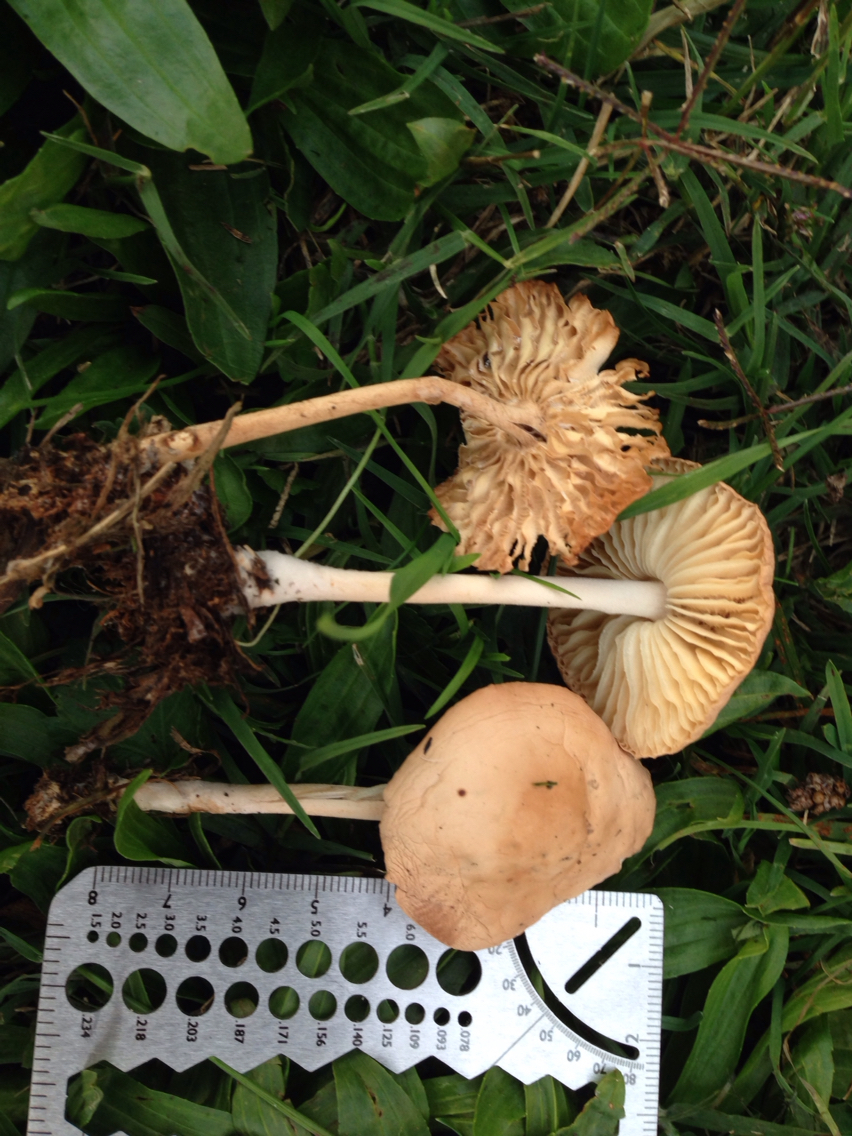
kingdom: Fungi
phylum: Basidiomycota
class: Agaricomycetes
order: Agaricales
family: Marasmiaceae
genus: Marasmius
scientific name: Marasmius oreades
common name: Fairy ring champignon
